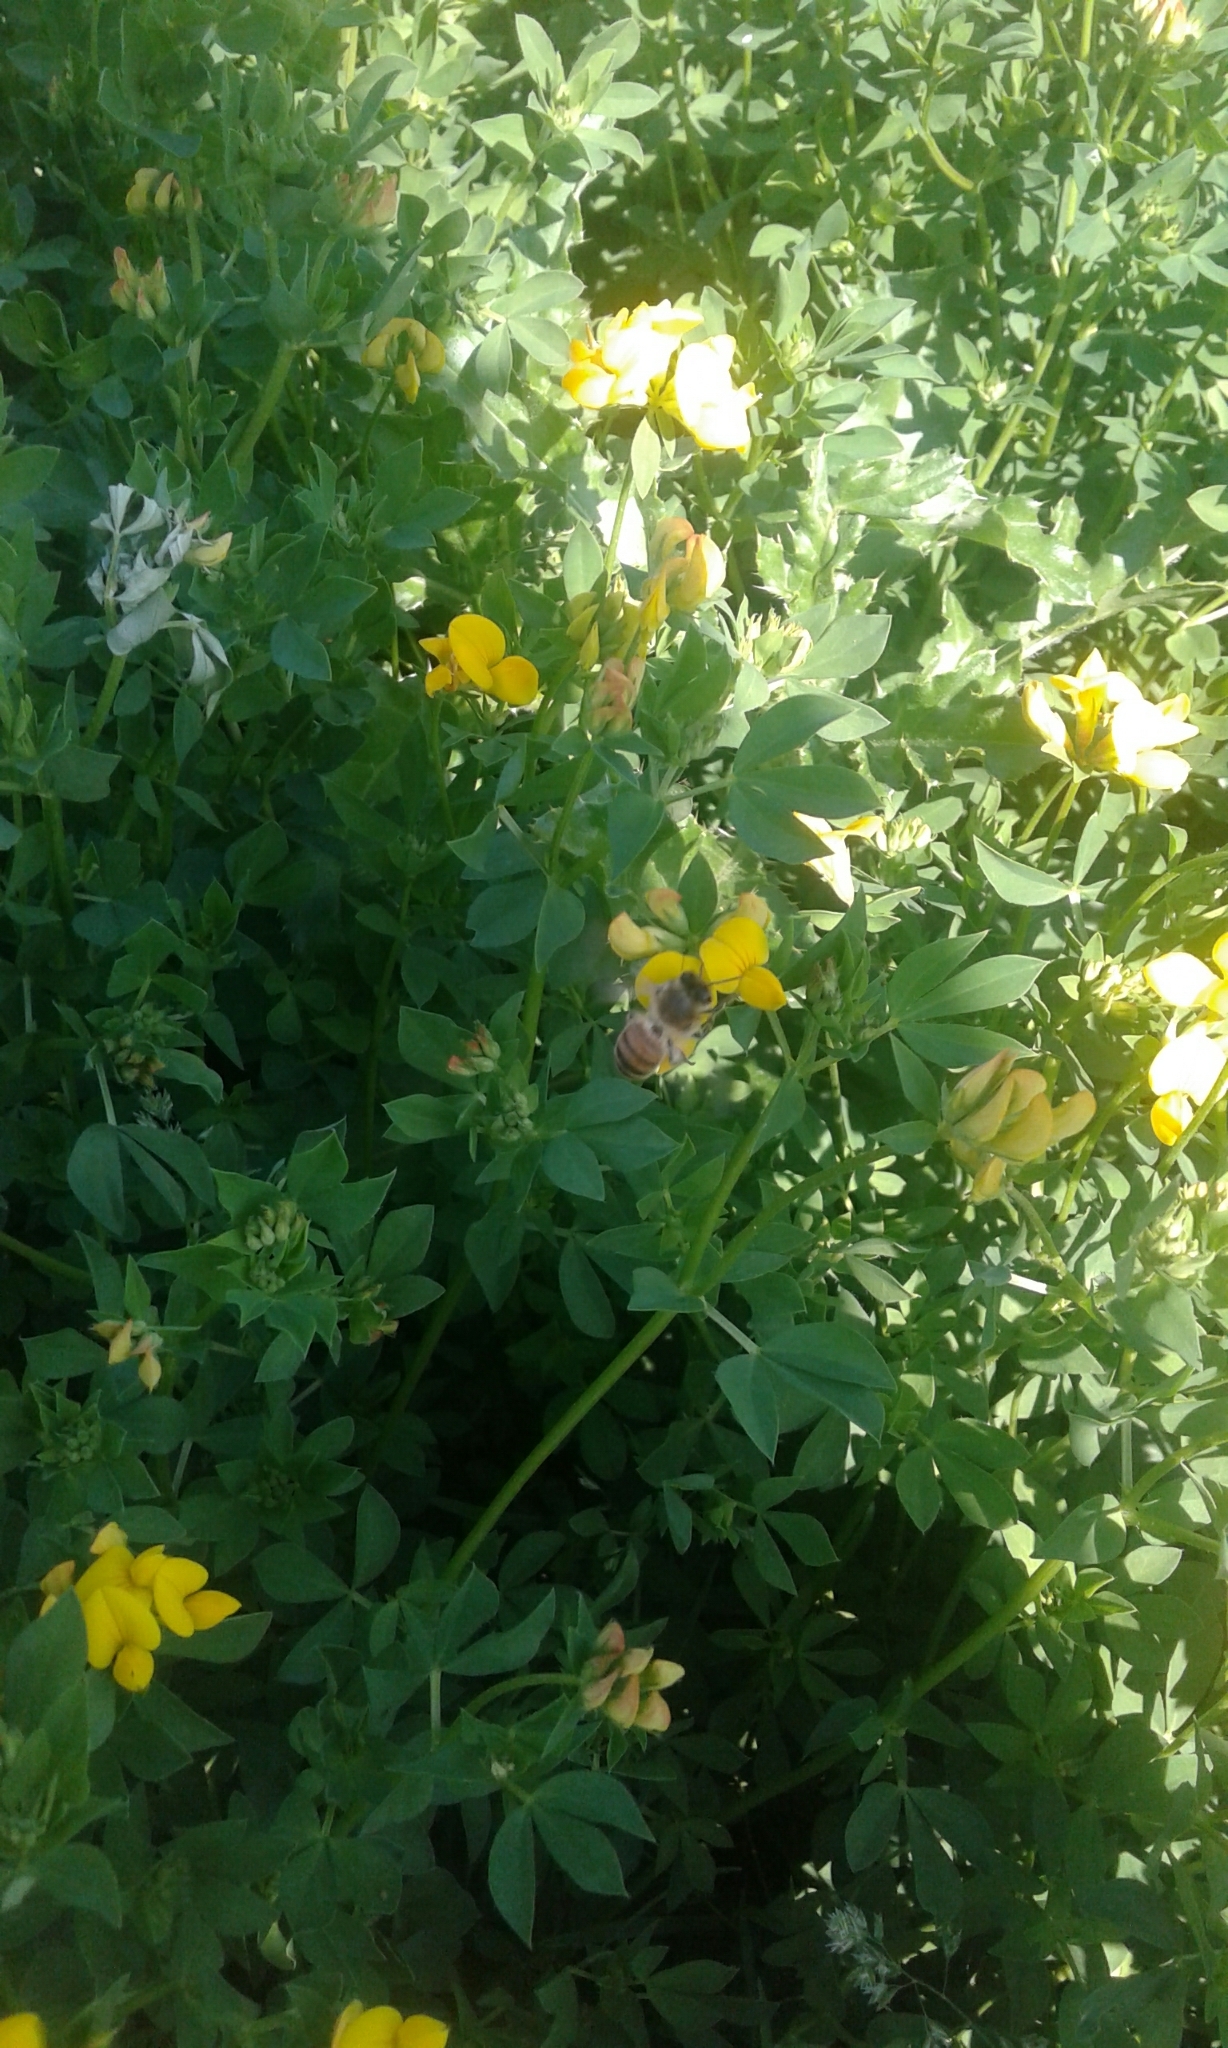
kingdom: Animalia
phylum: Arthropoda
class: Insecta
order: Hymenoptera
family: Apidae
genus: Apis
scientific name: Apis mellifera
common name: Honey bee
